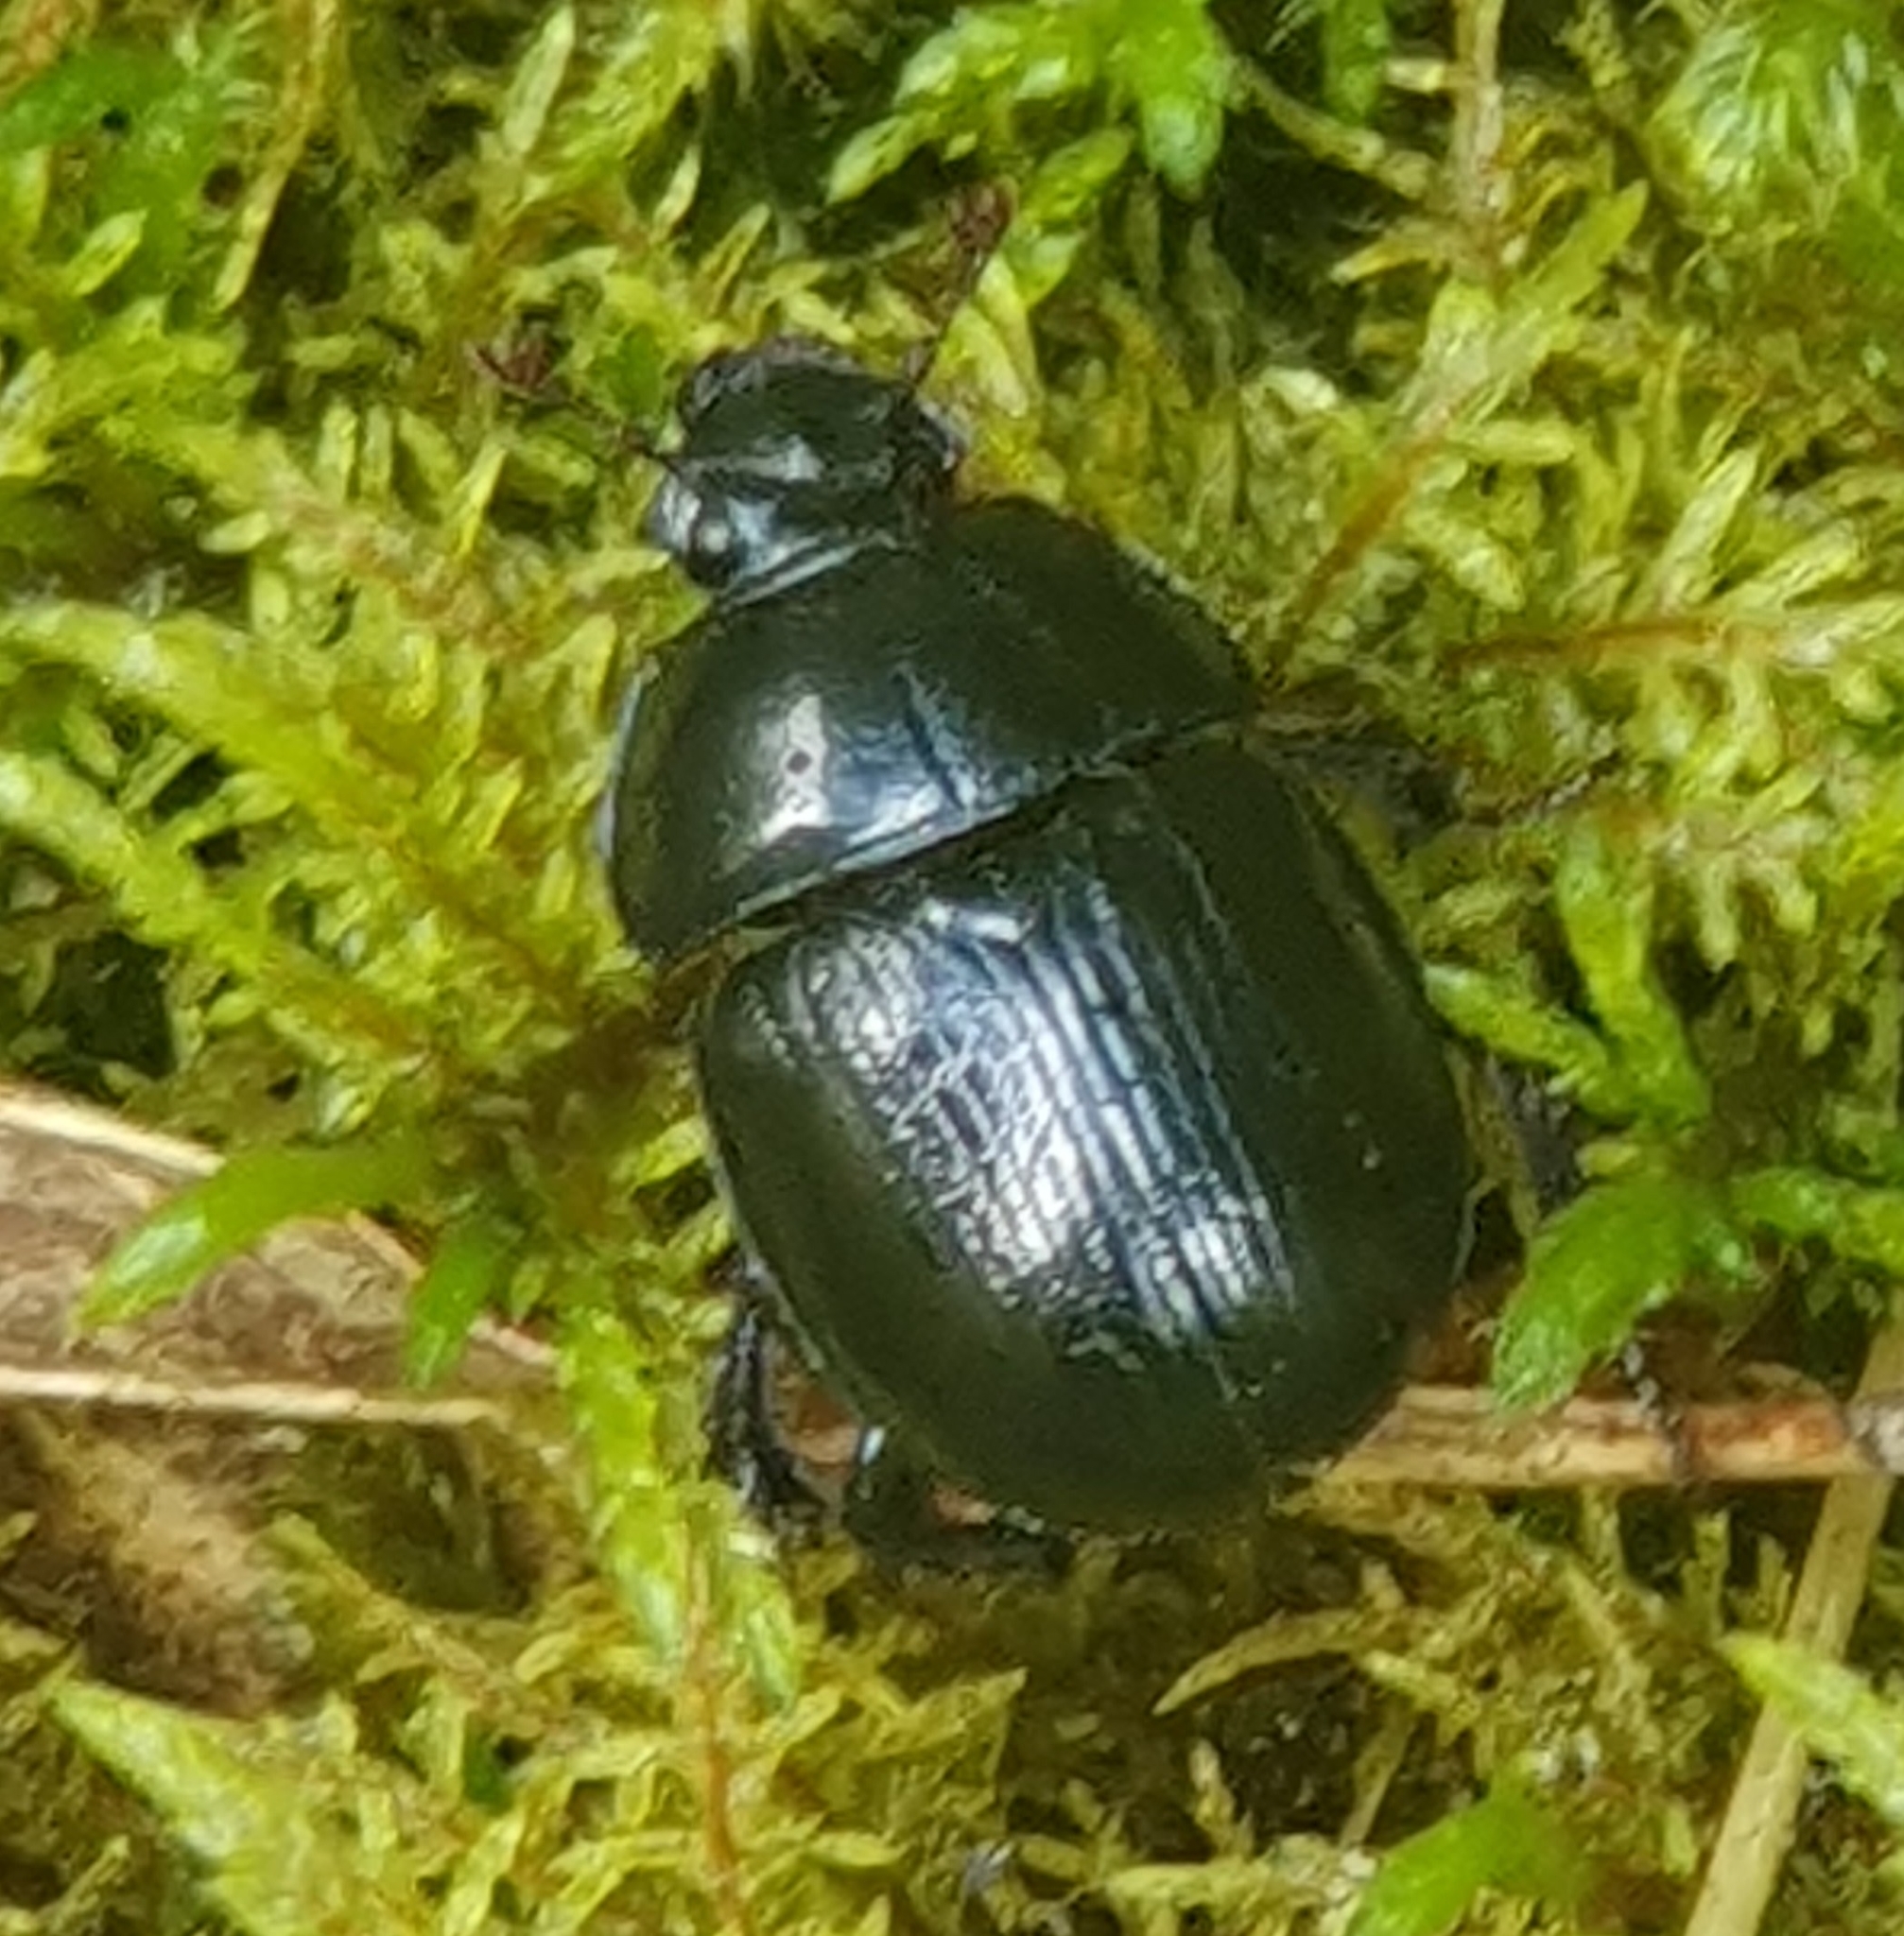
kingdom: Animalia
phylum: Arthropoda
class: Insecta
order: Coleoptera
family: Geotrupidae
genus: Anoplotrupes
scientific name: Anoplotrupes stercorosus
